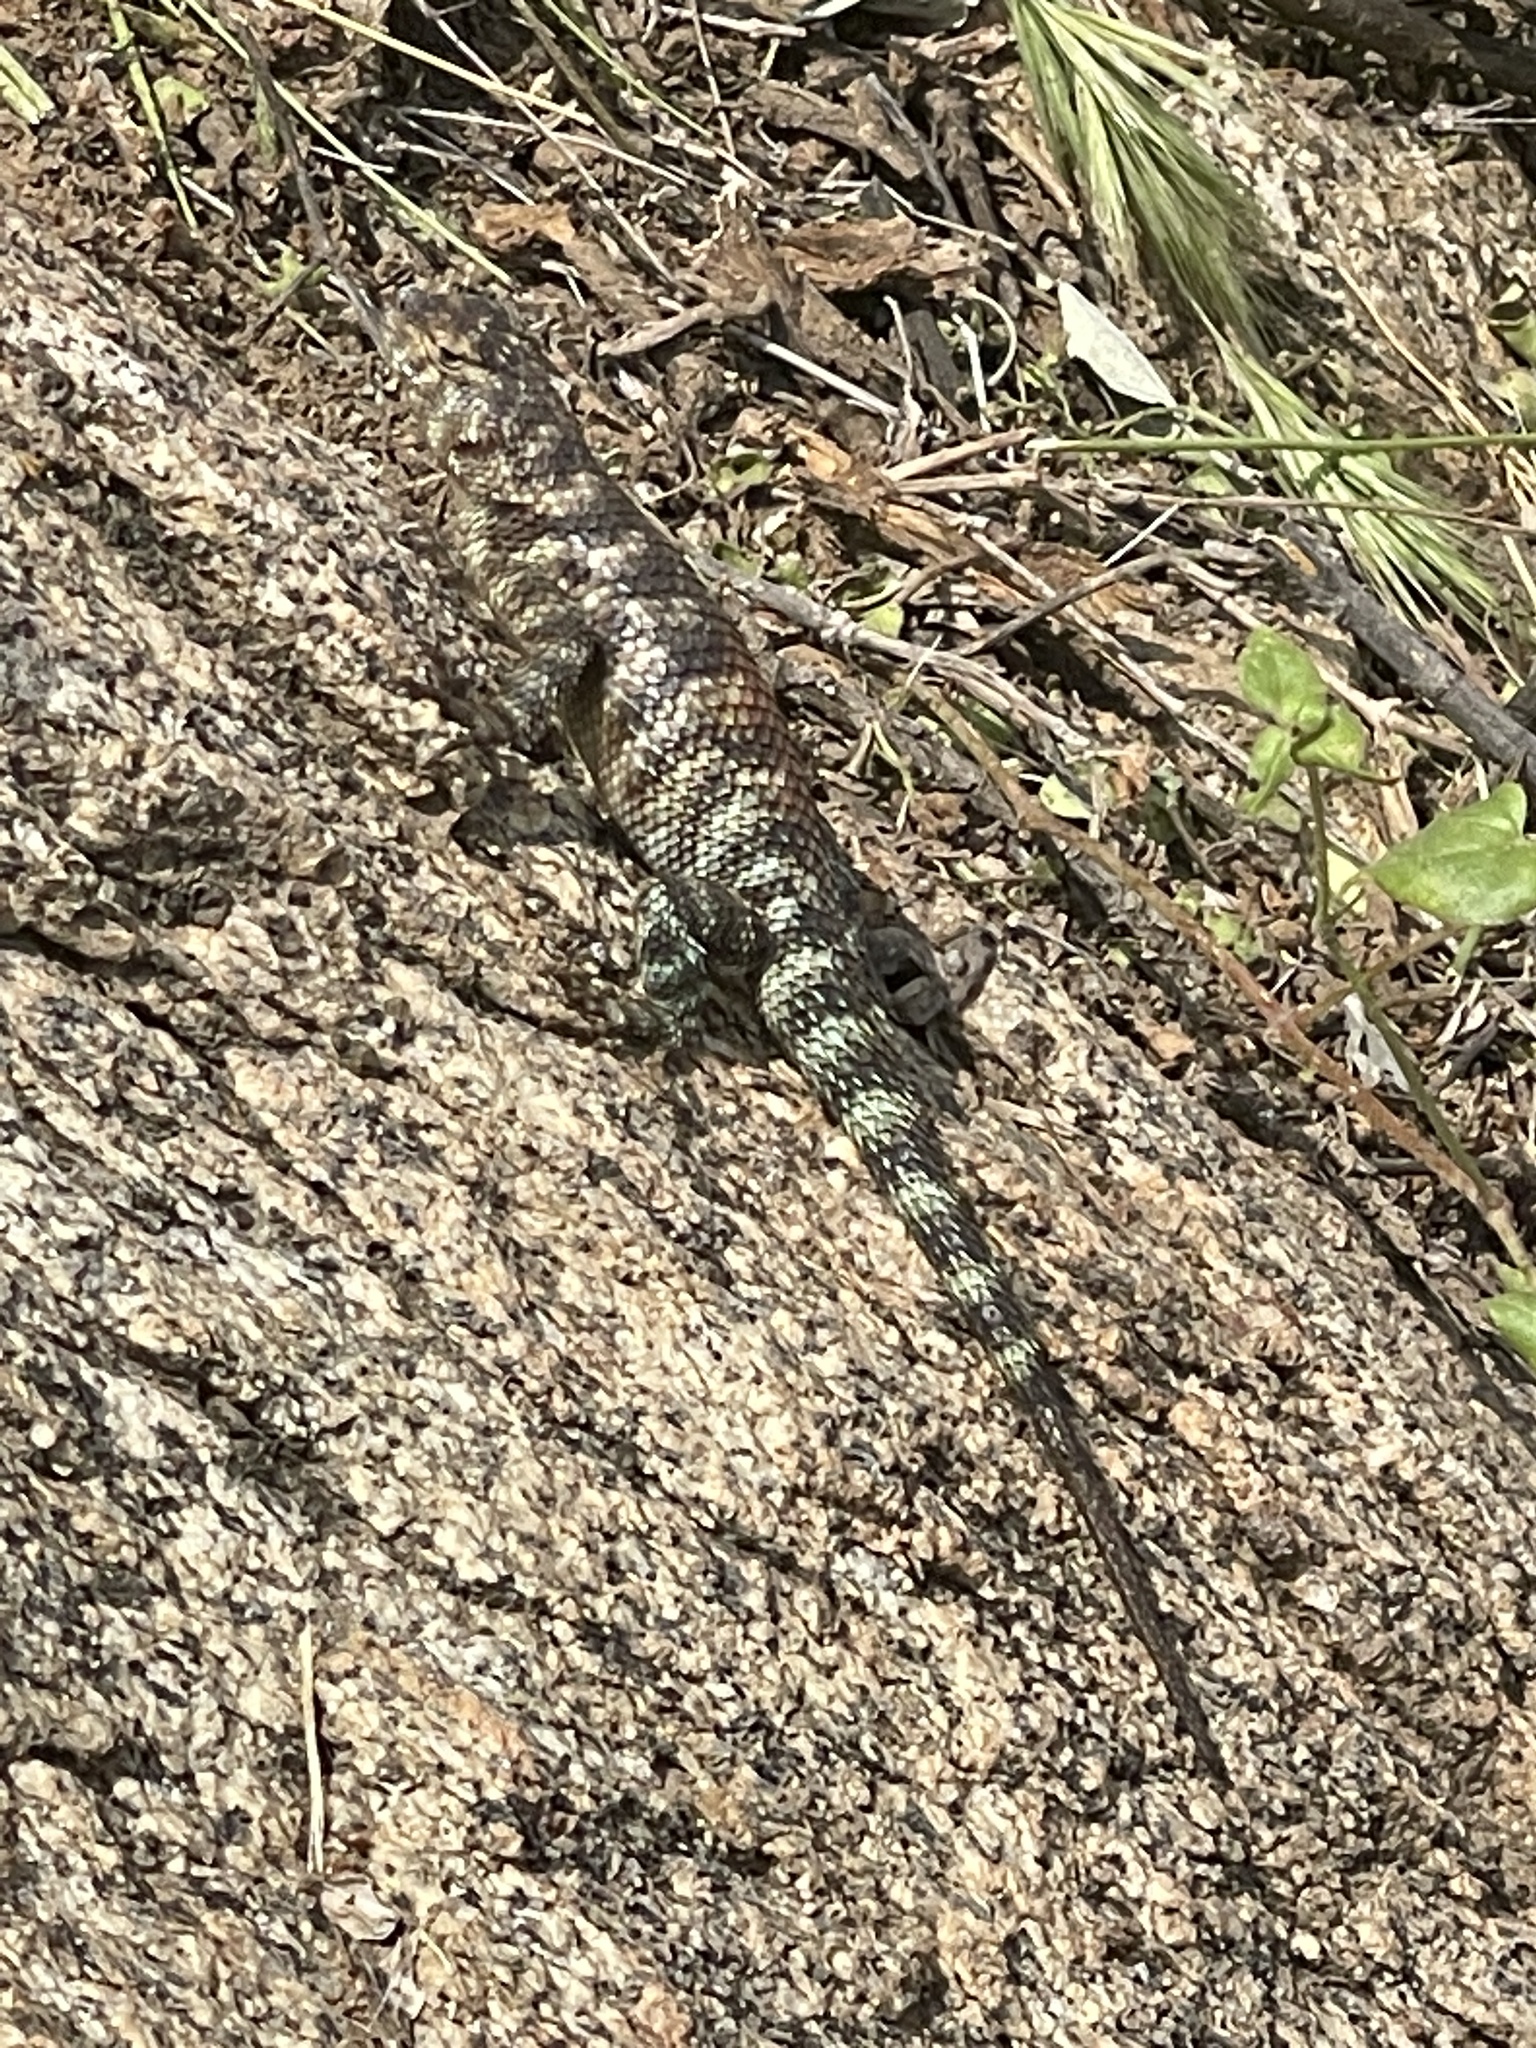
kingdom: Animalia
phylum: Chordata
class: Squamata
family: Phrynosomatidae
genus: Sceloporus
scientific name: Sceloporus orcutti
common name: Granite spiny lizard
